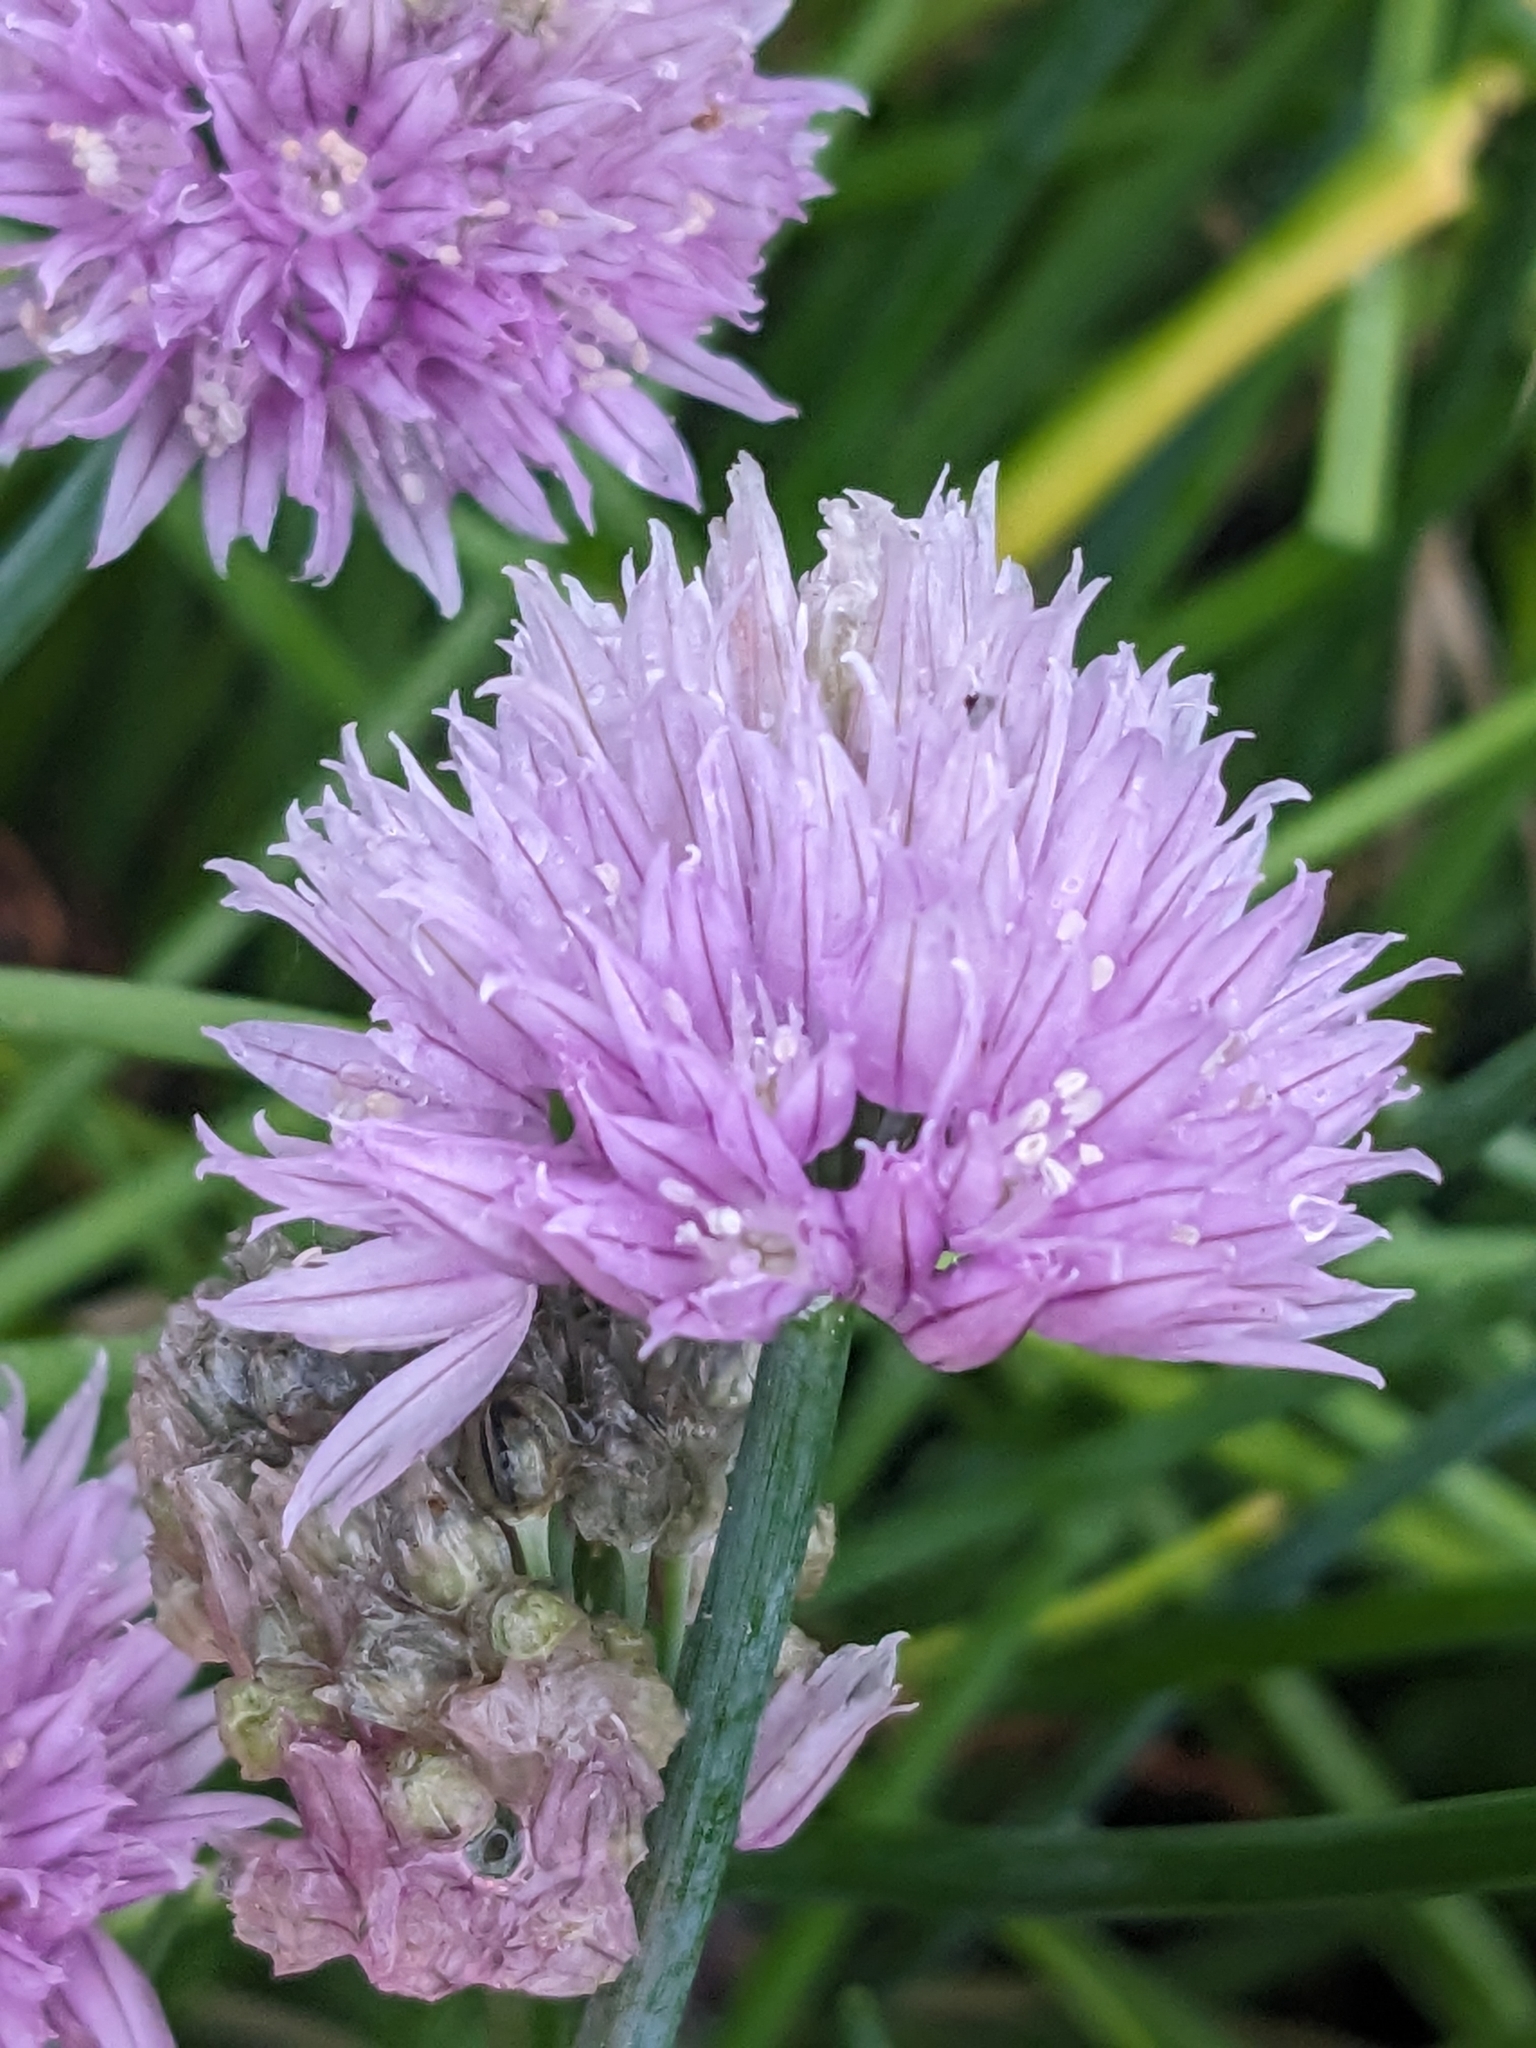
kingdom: Plantae
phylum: Tracheophyta
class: Liliopsida
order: Asparagales
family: Amaryllidaceae
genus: Allium
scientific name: Allium schoenoprasum
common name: Chives
